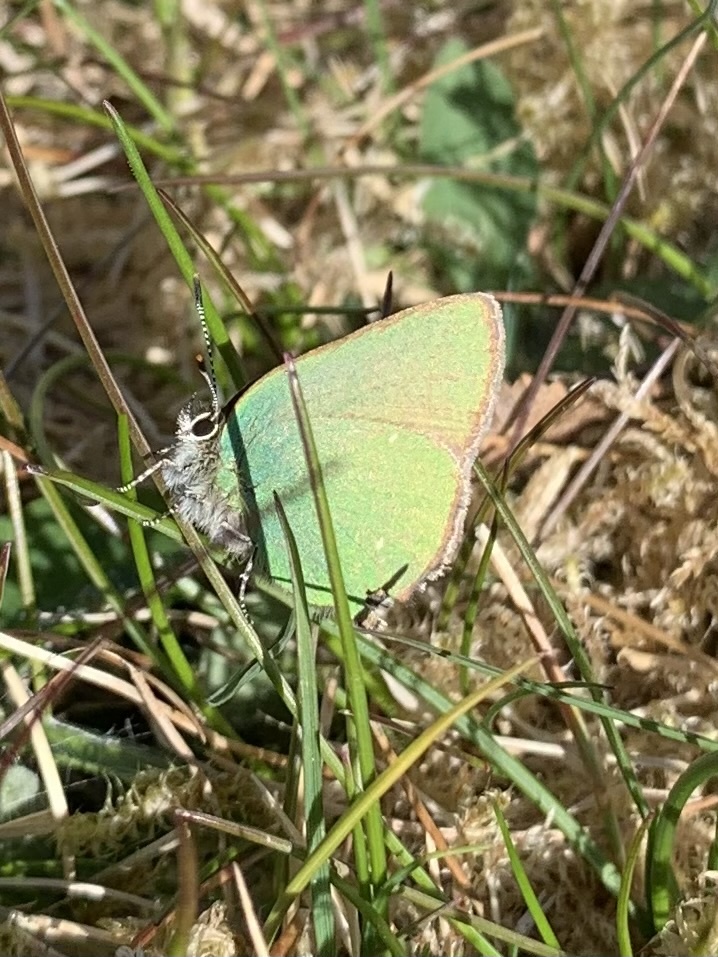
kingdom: Animalia
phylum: Arthropoda
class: Insecta
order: Lepidoptera
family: Lycaenidae
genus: Callophrys
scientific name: Callophrys rubi
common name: Green hairstreak
